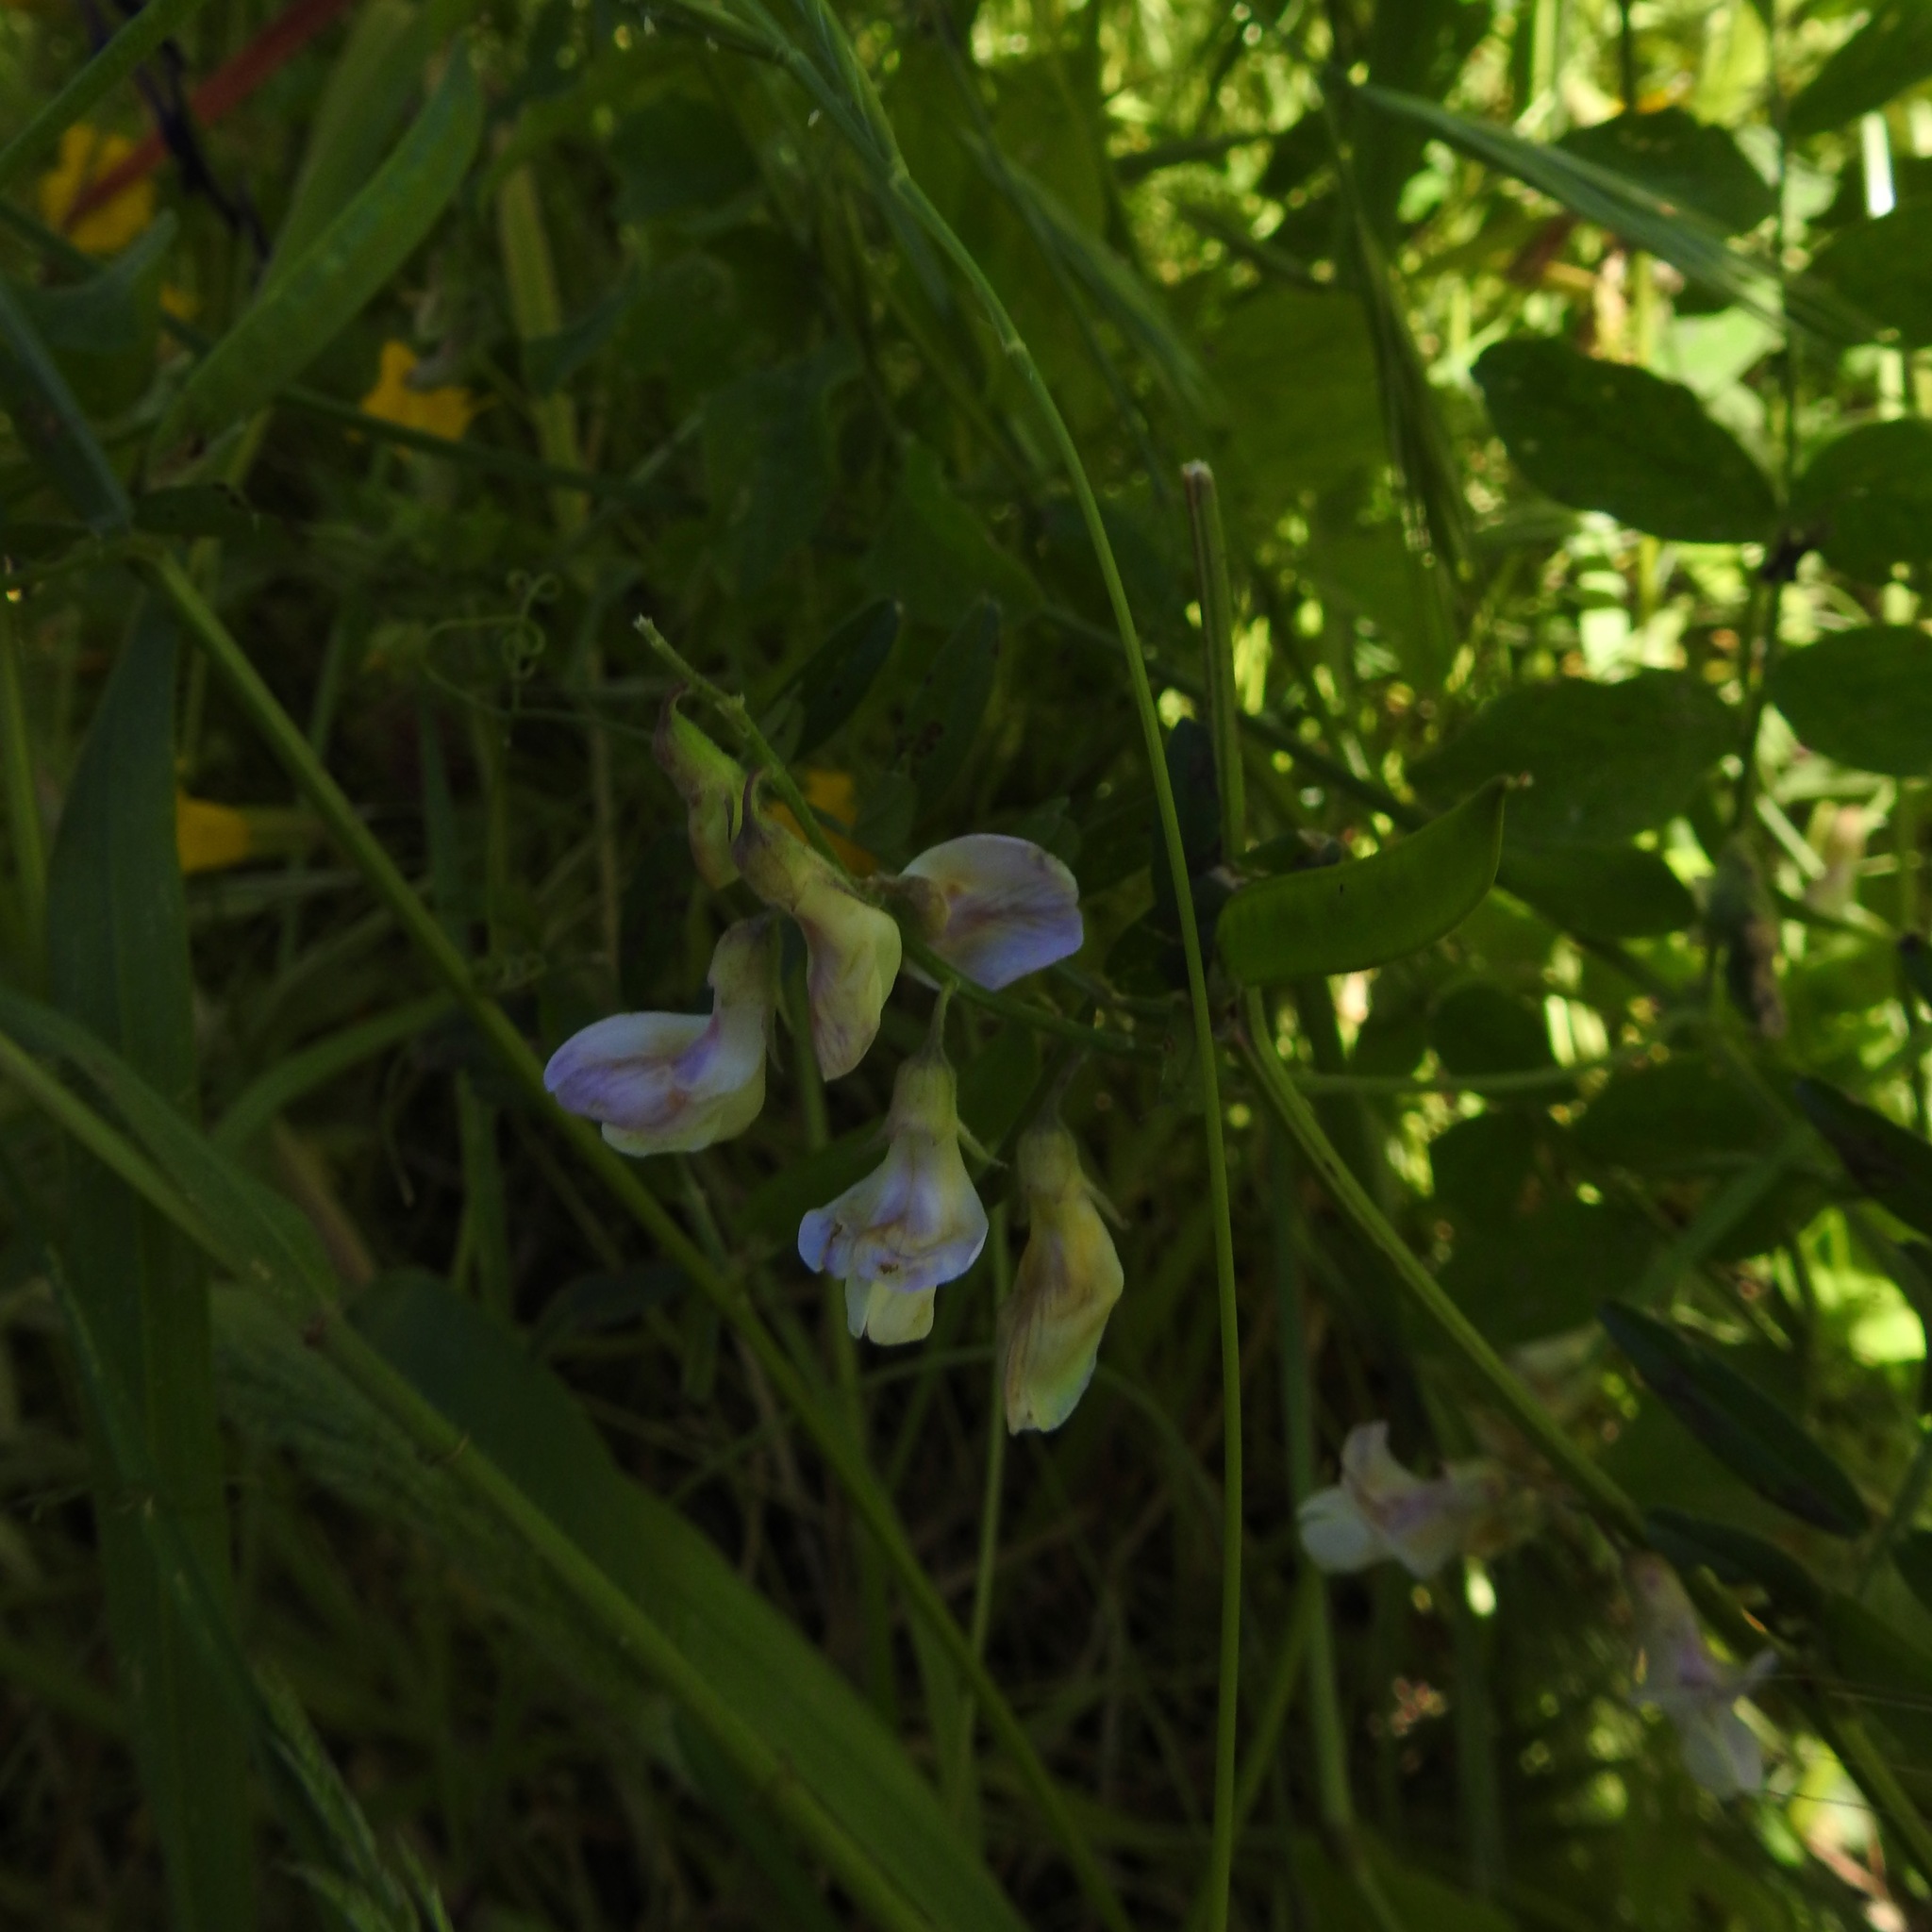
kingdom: Plantae
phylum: Tracheophyta
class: Magnoliopsida
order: Fabales
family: Fabaceae
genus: Lathyrus
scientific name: Lathyrus vestitus
